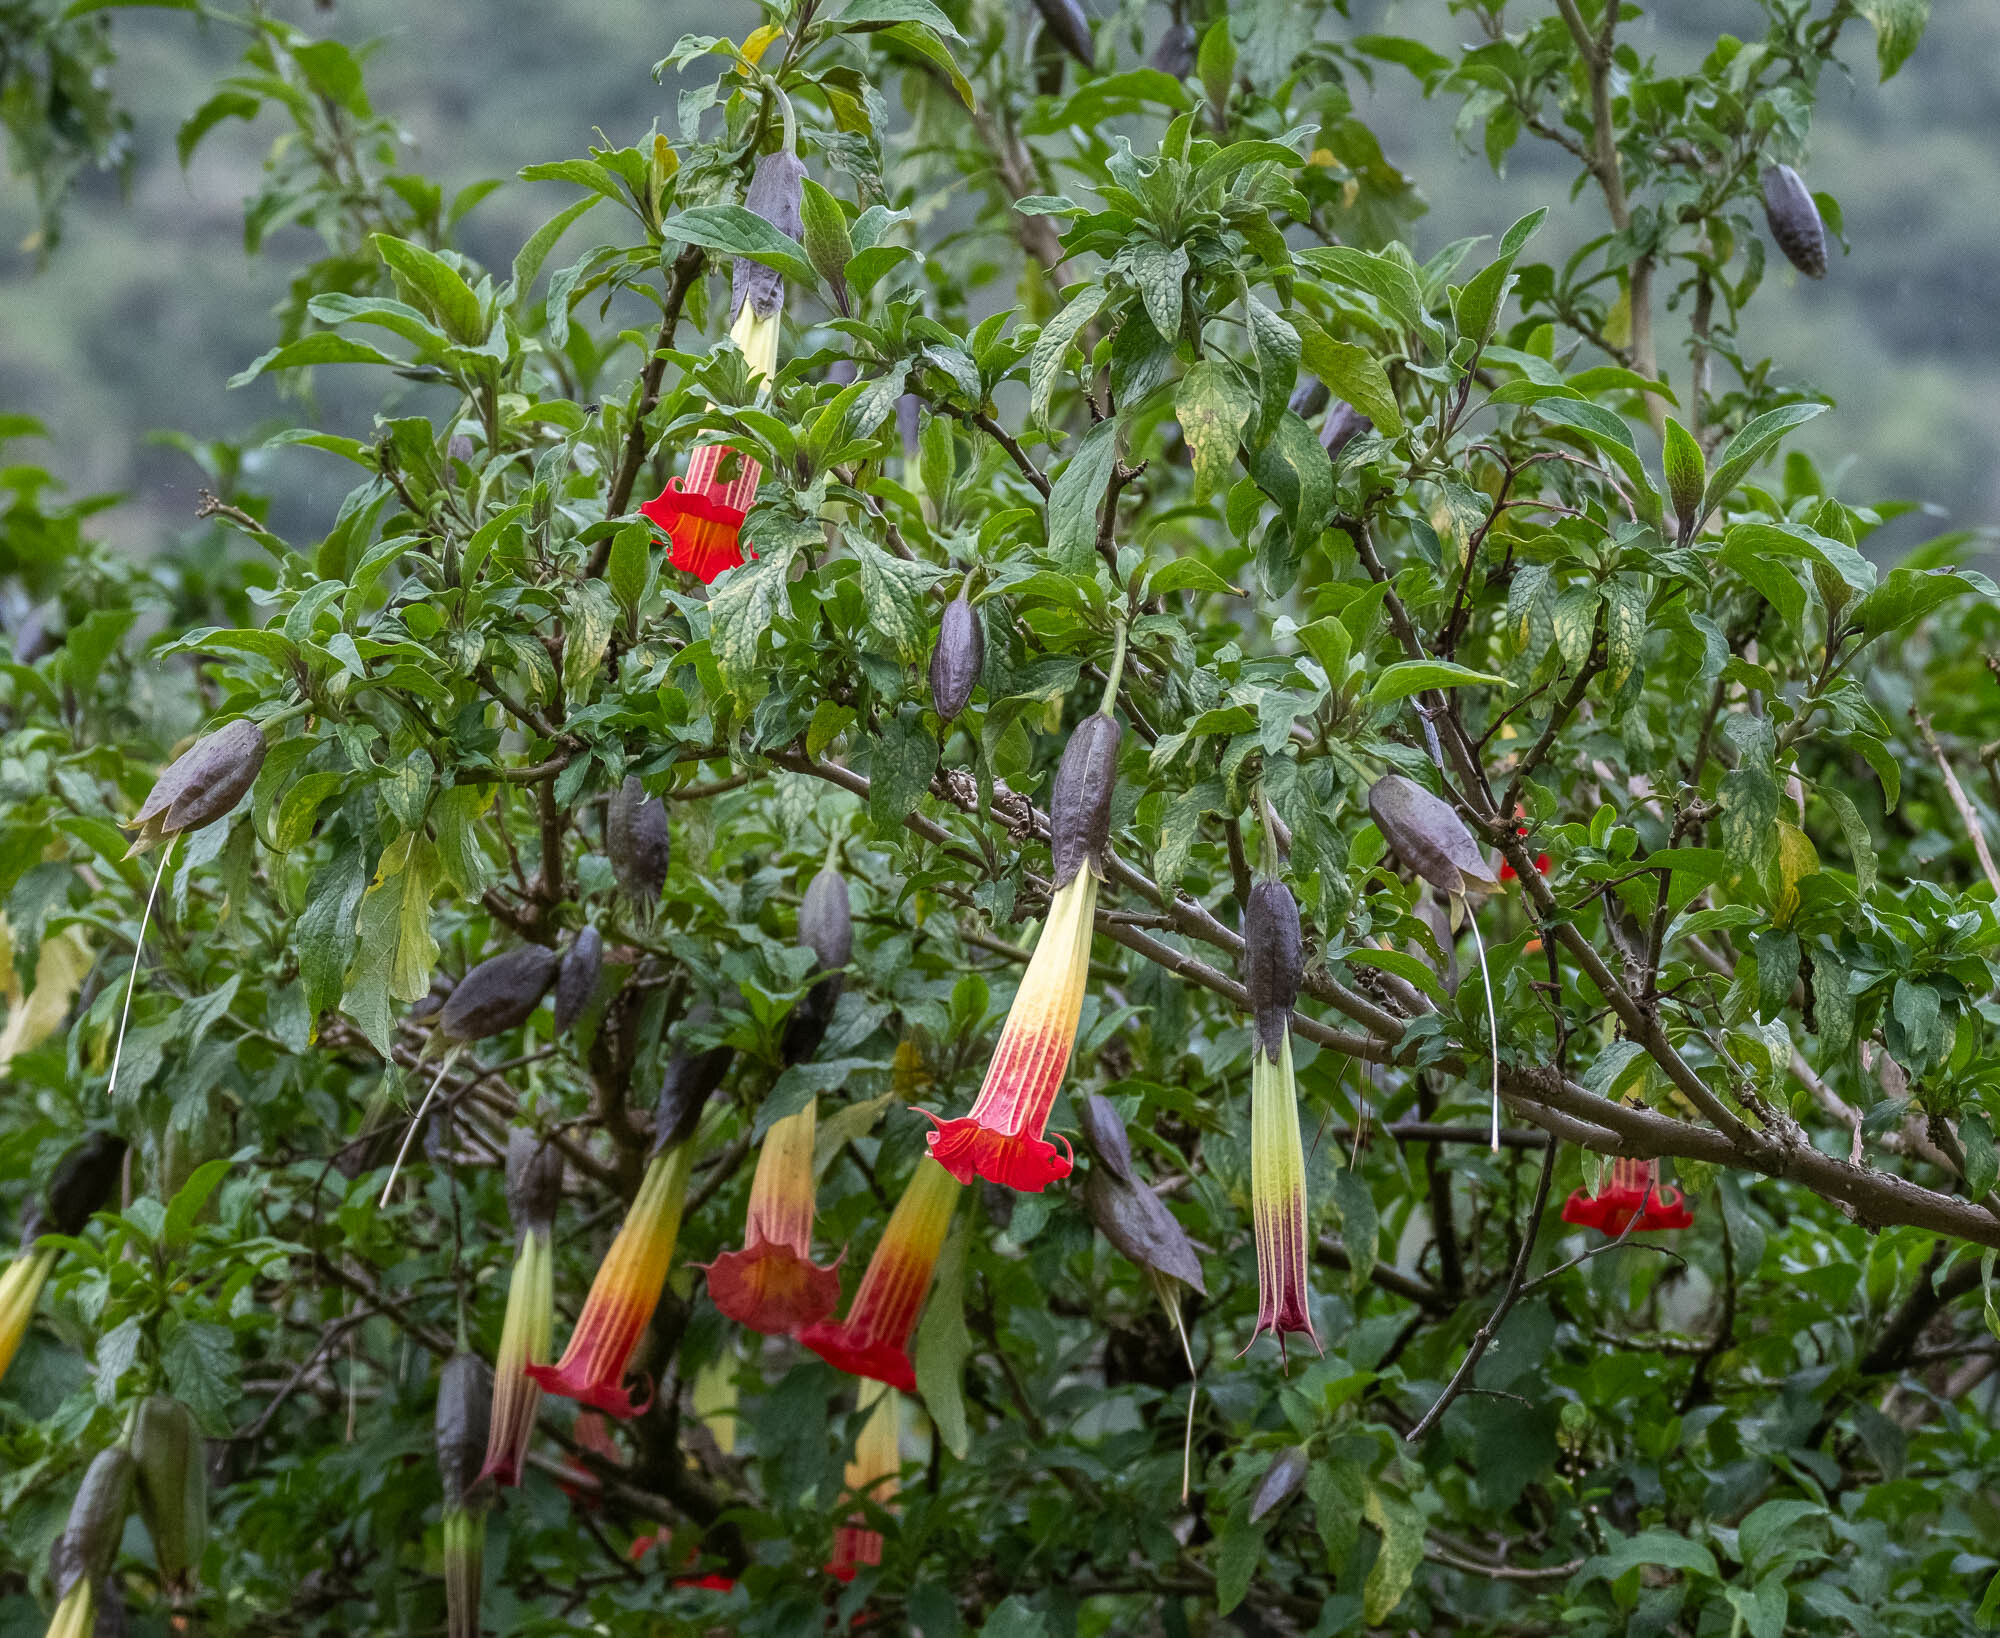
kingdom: Plantae
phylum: Tracheophyta
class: Magnoliopsida
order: Solanales
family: Solanaceae
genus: Brugmansia
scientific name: Brugmansia sanguinea
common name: Red floripontio
